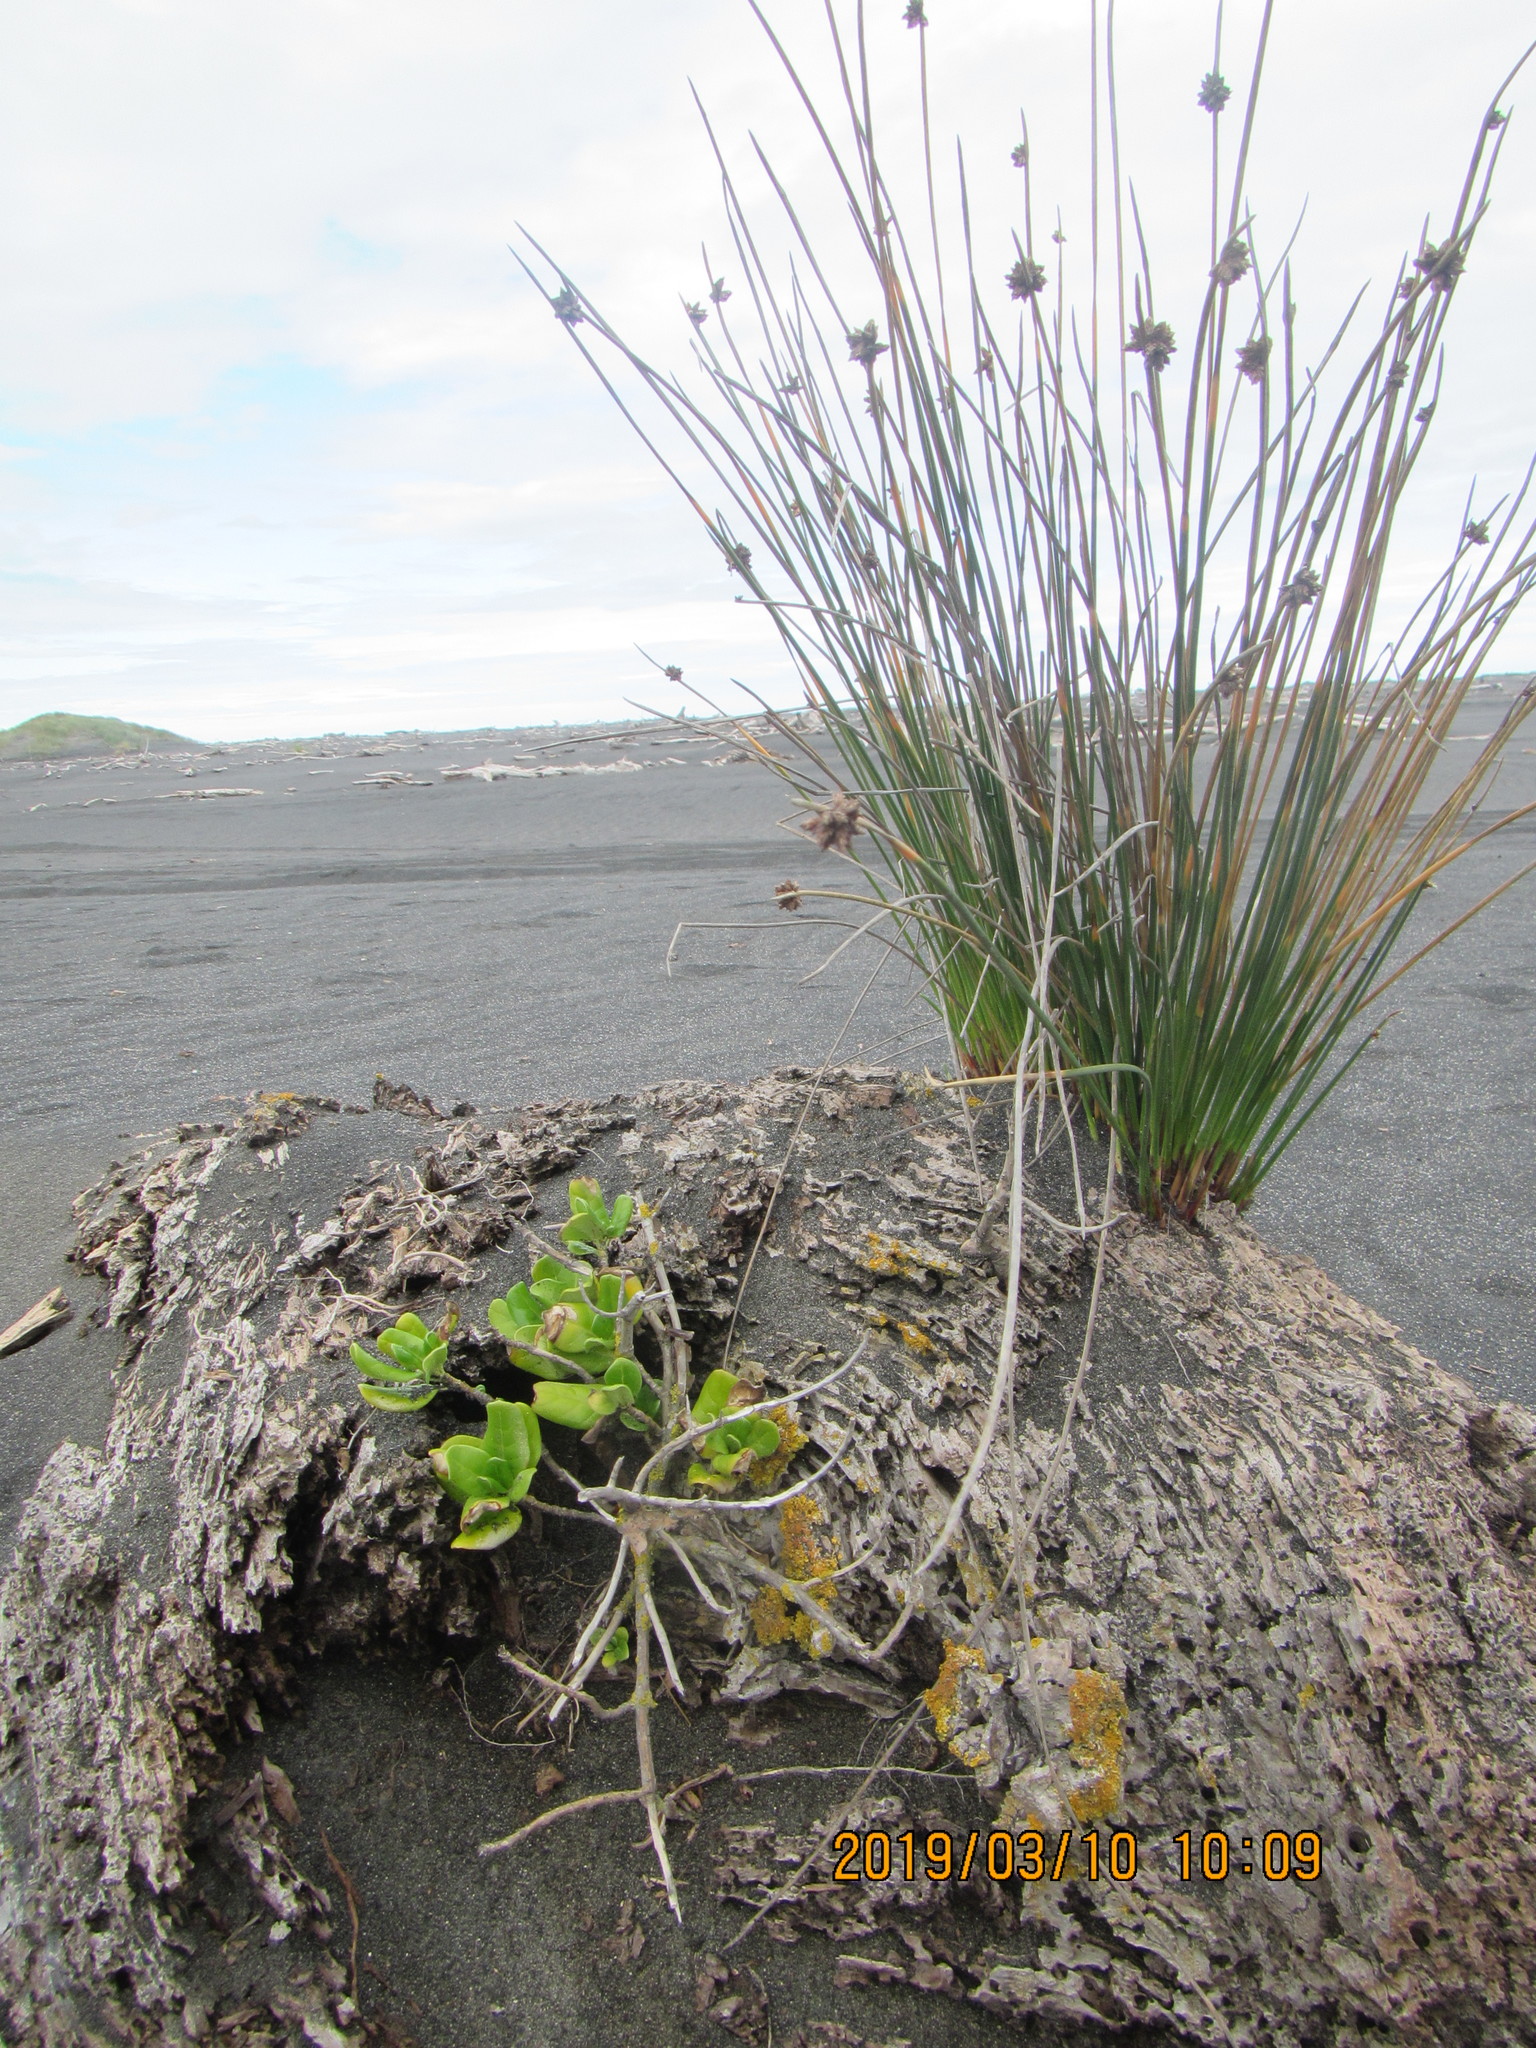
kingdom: Plantae
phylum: Tracheophyta
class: Liliopsida
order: Poales
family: Cyperaceae
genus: Ficinia
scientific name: Ficinia nodosa
